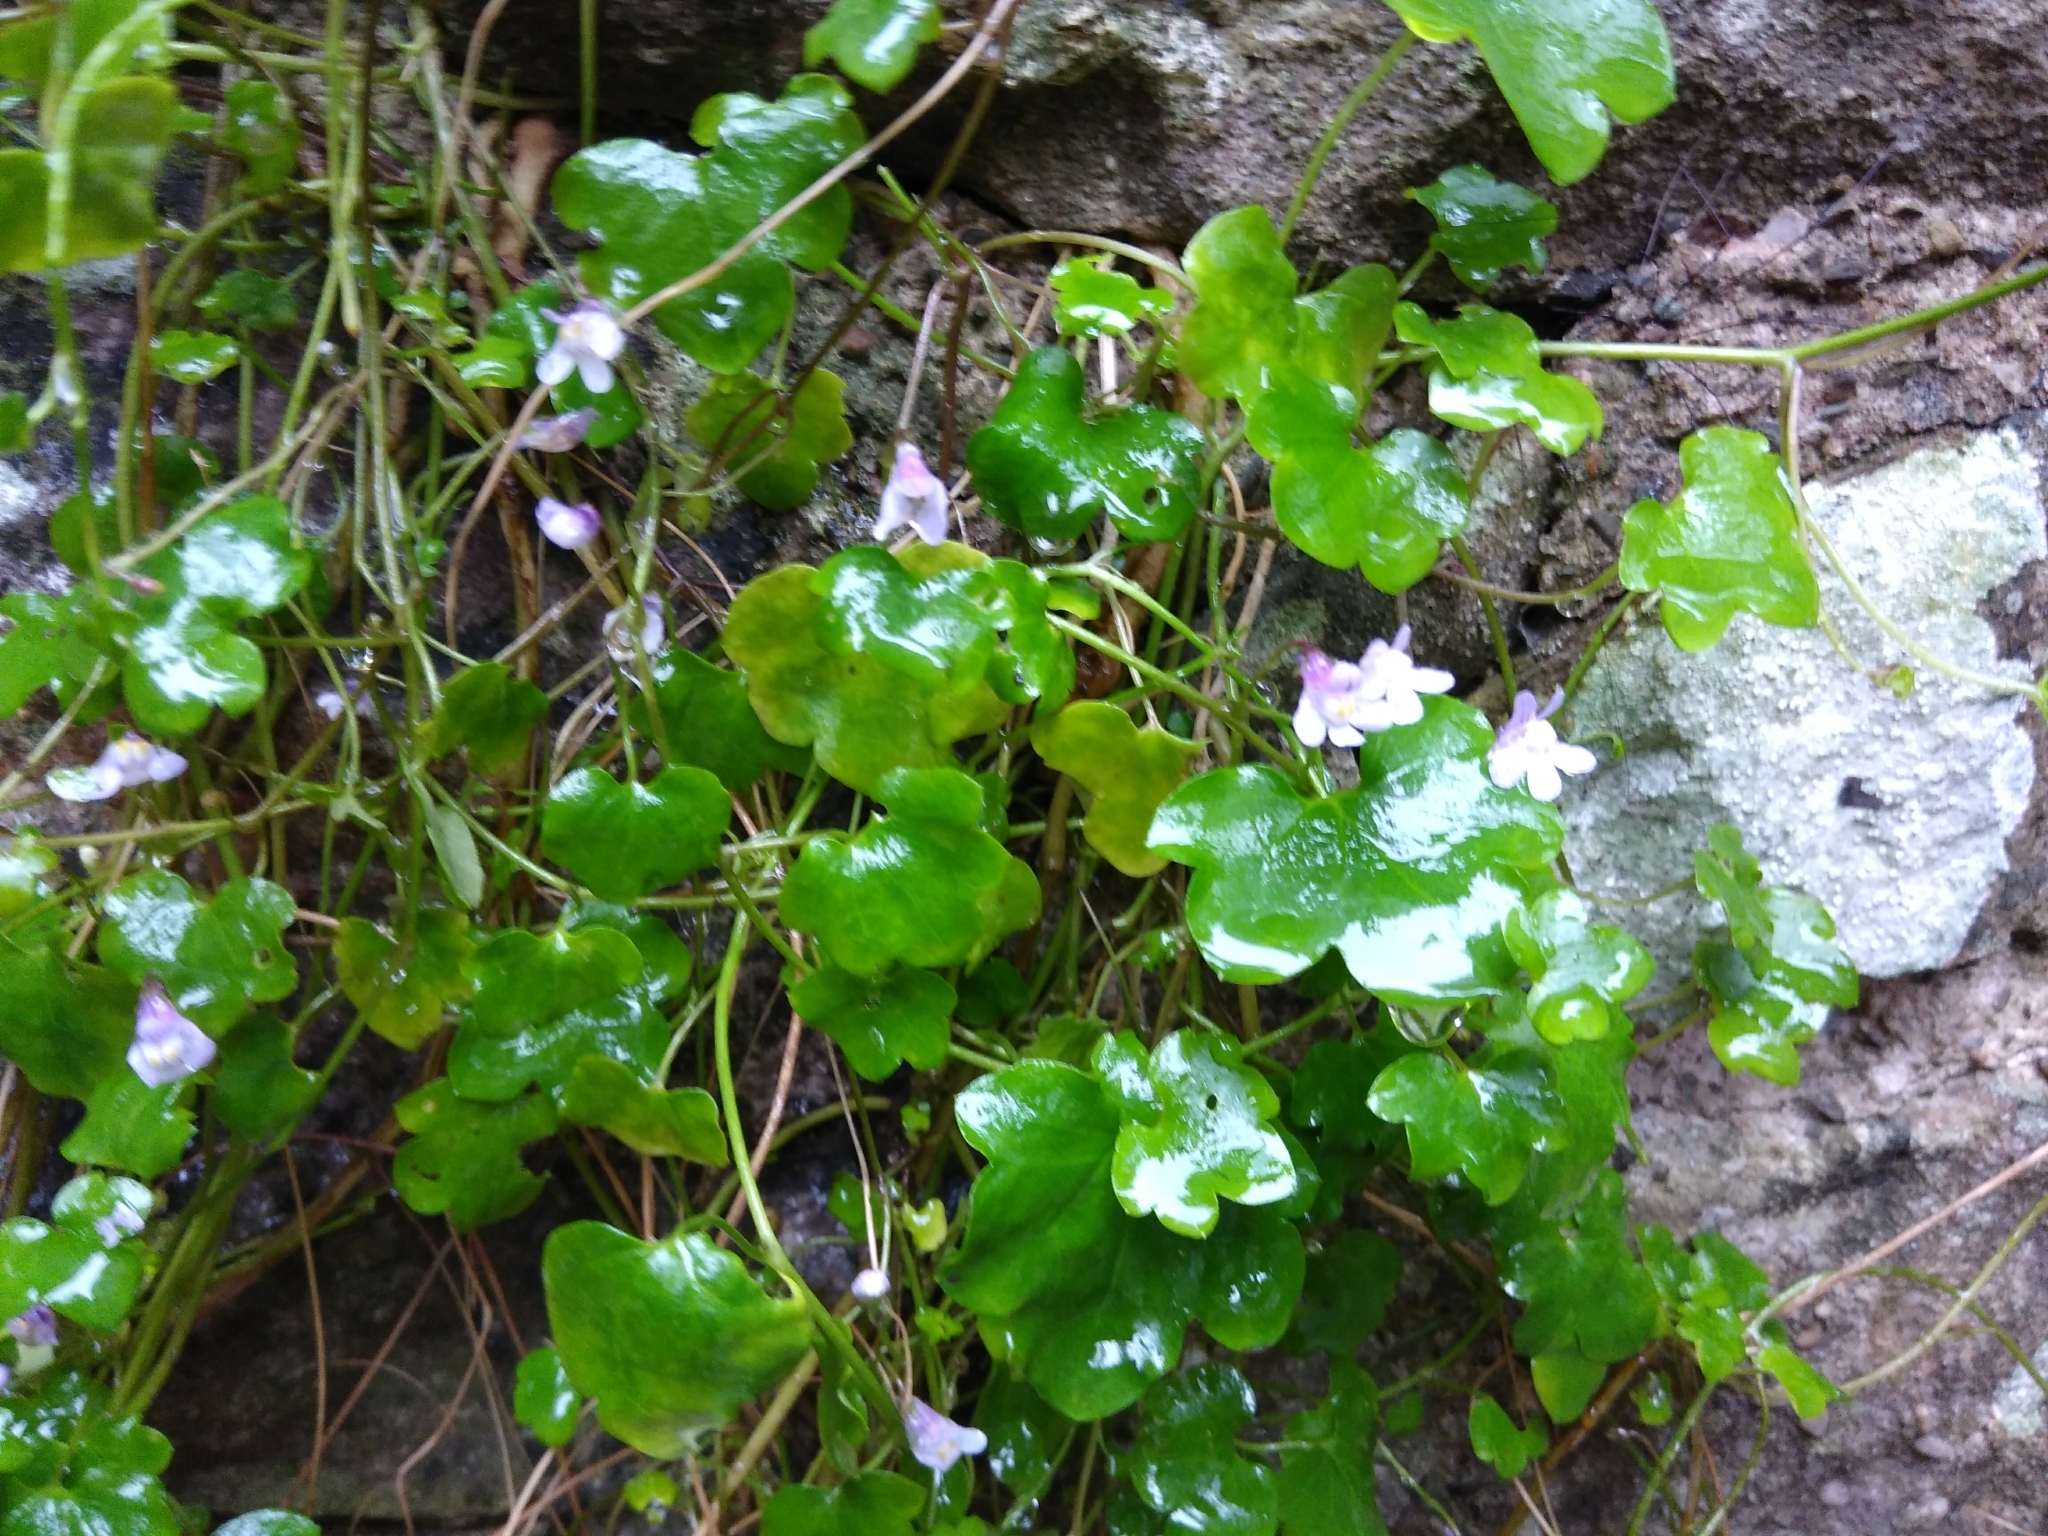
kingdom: Plantae
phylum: Tracheophyta
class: Magnoliopsida
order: Lamiales
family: Plantaginaceae
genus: Cymbalaria
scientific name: Cymbalaria muralis
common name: Ivy-leaved toadflax
